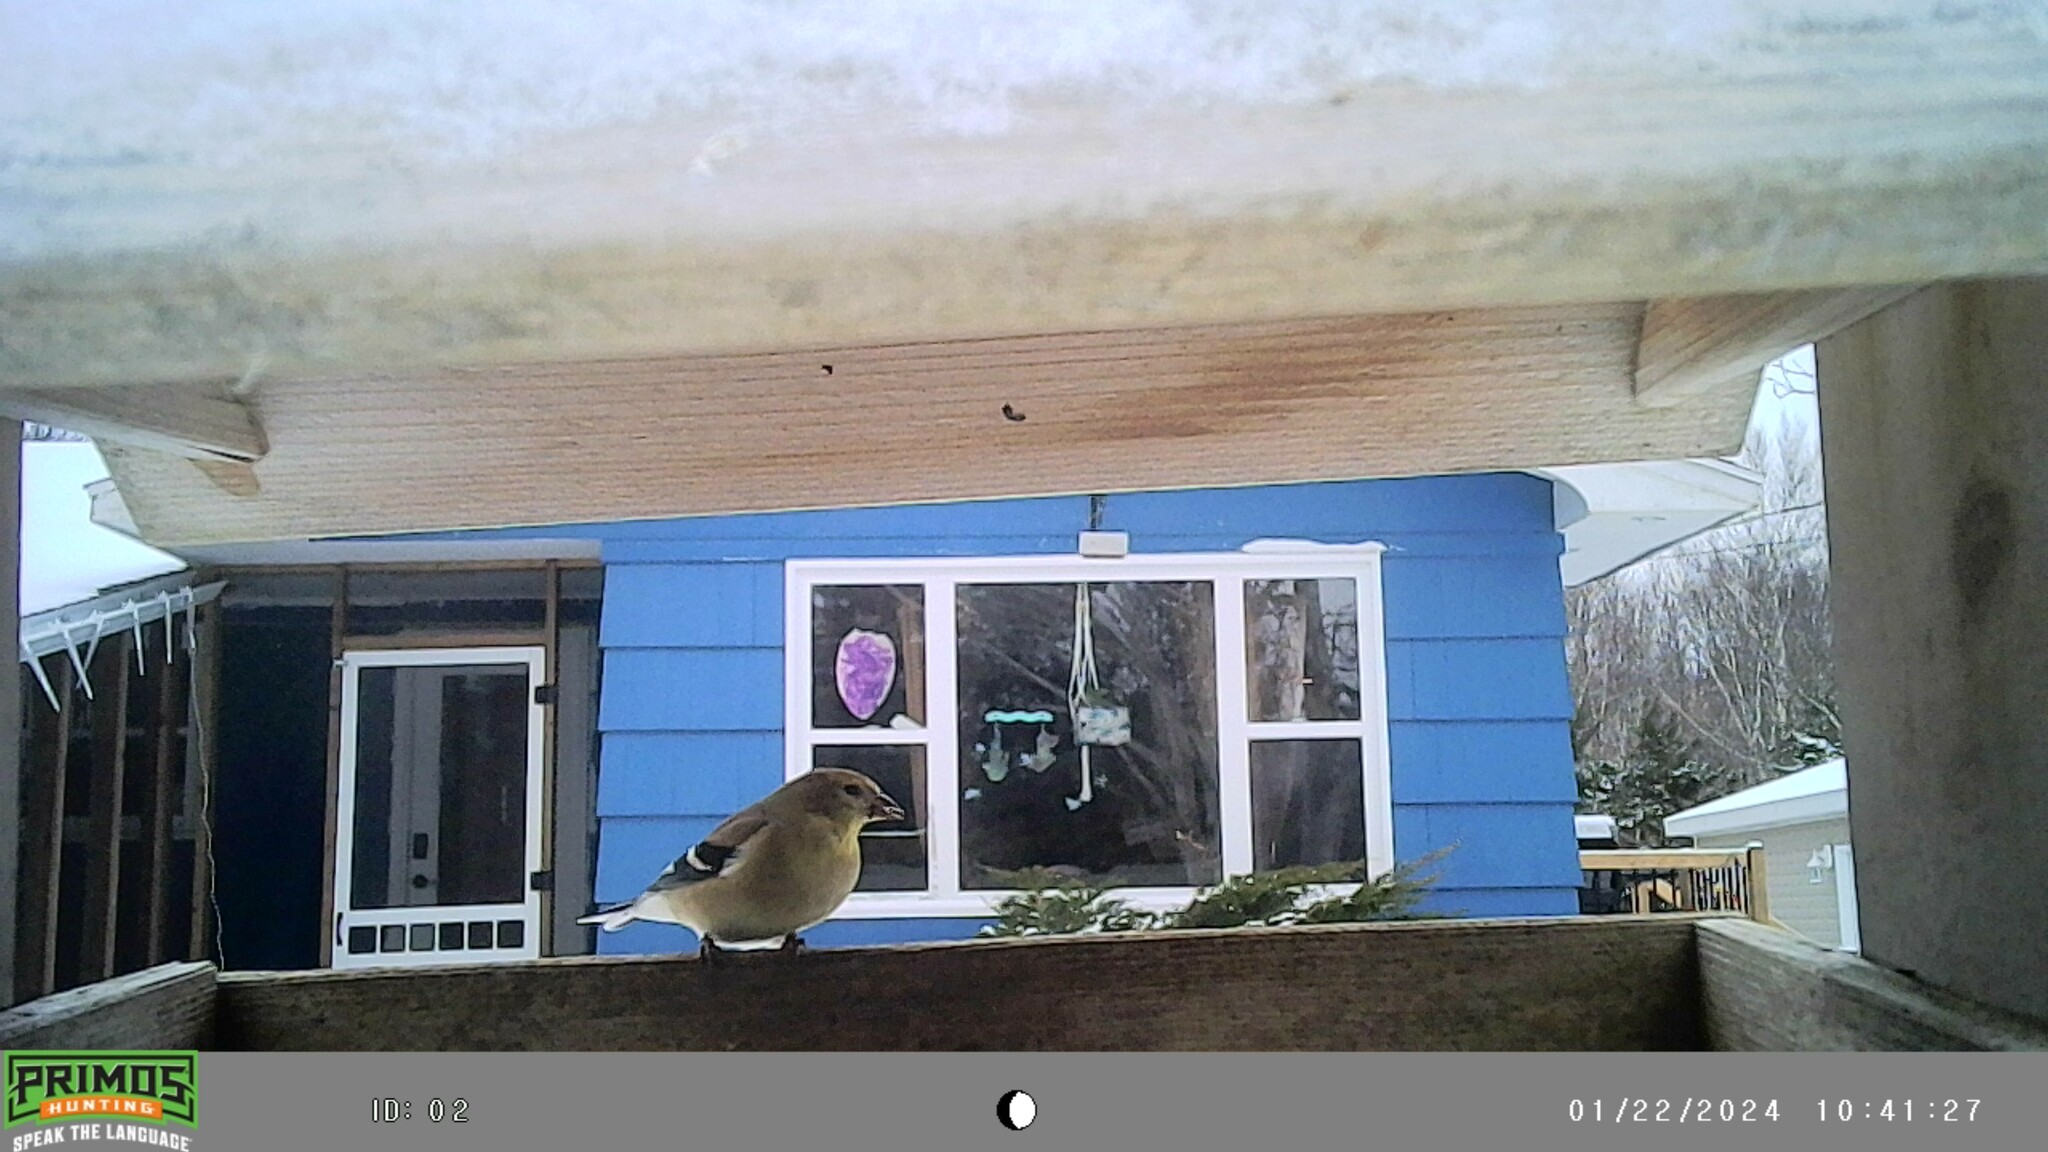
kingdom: Animalia
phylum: Chordata
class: Aves
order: Passeriformes
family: Fringillidae
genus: Spinus
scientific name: Spinus tristis
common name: American goldfinch
